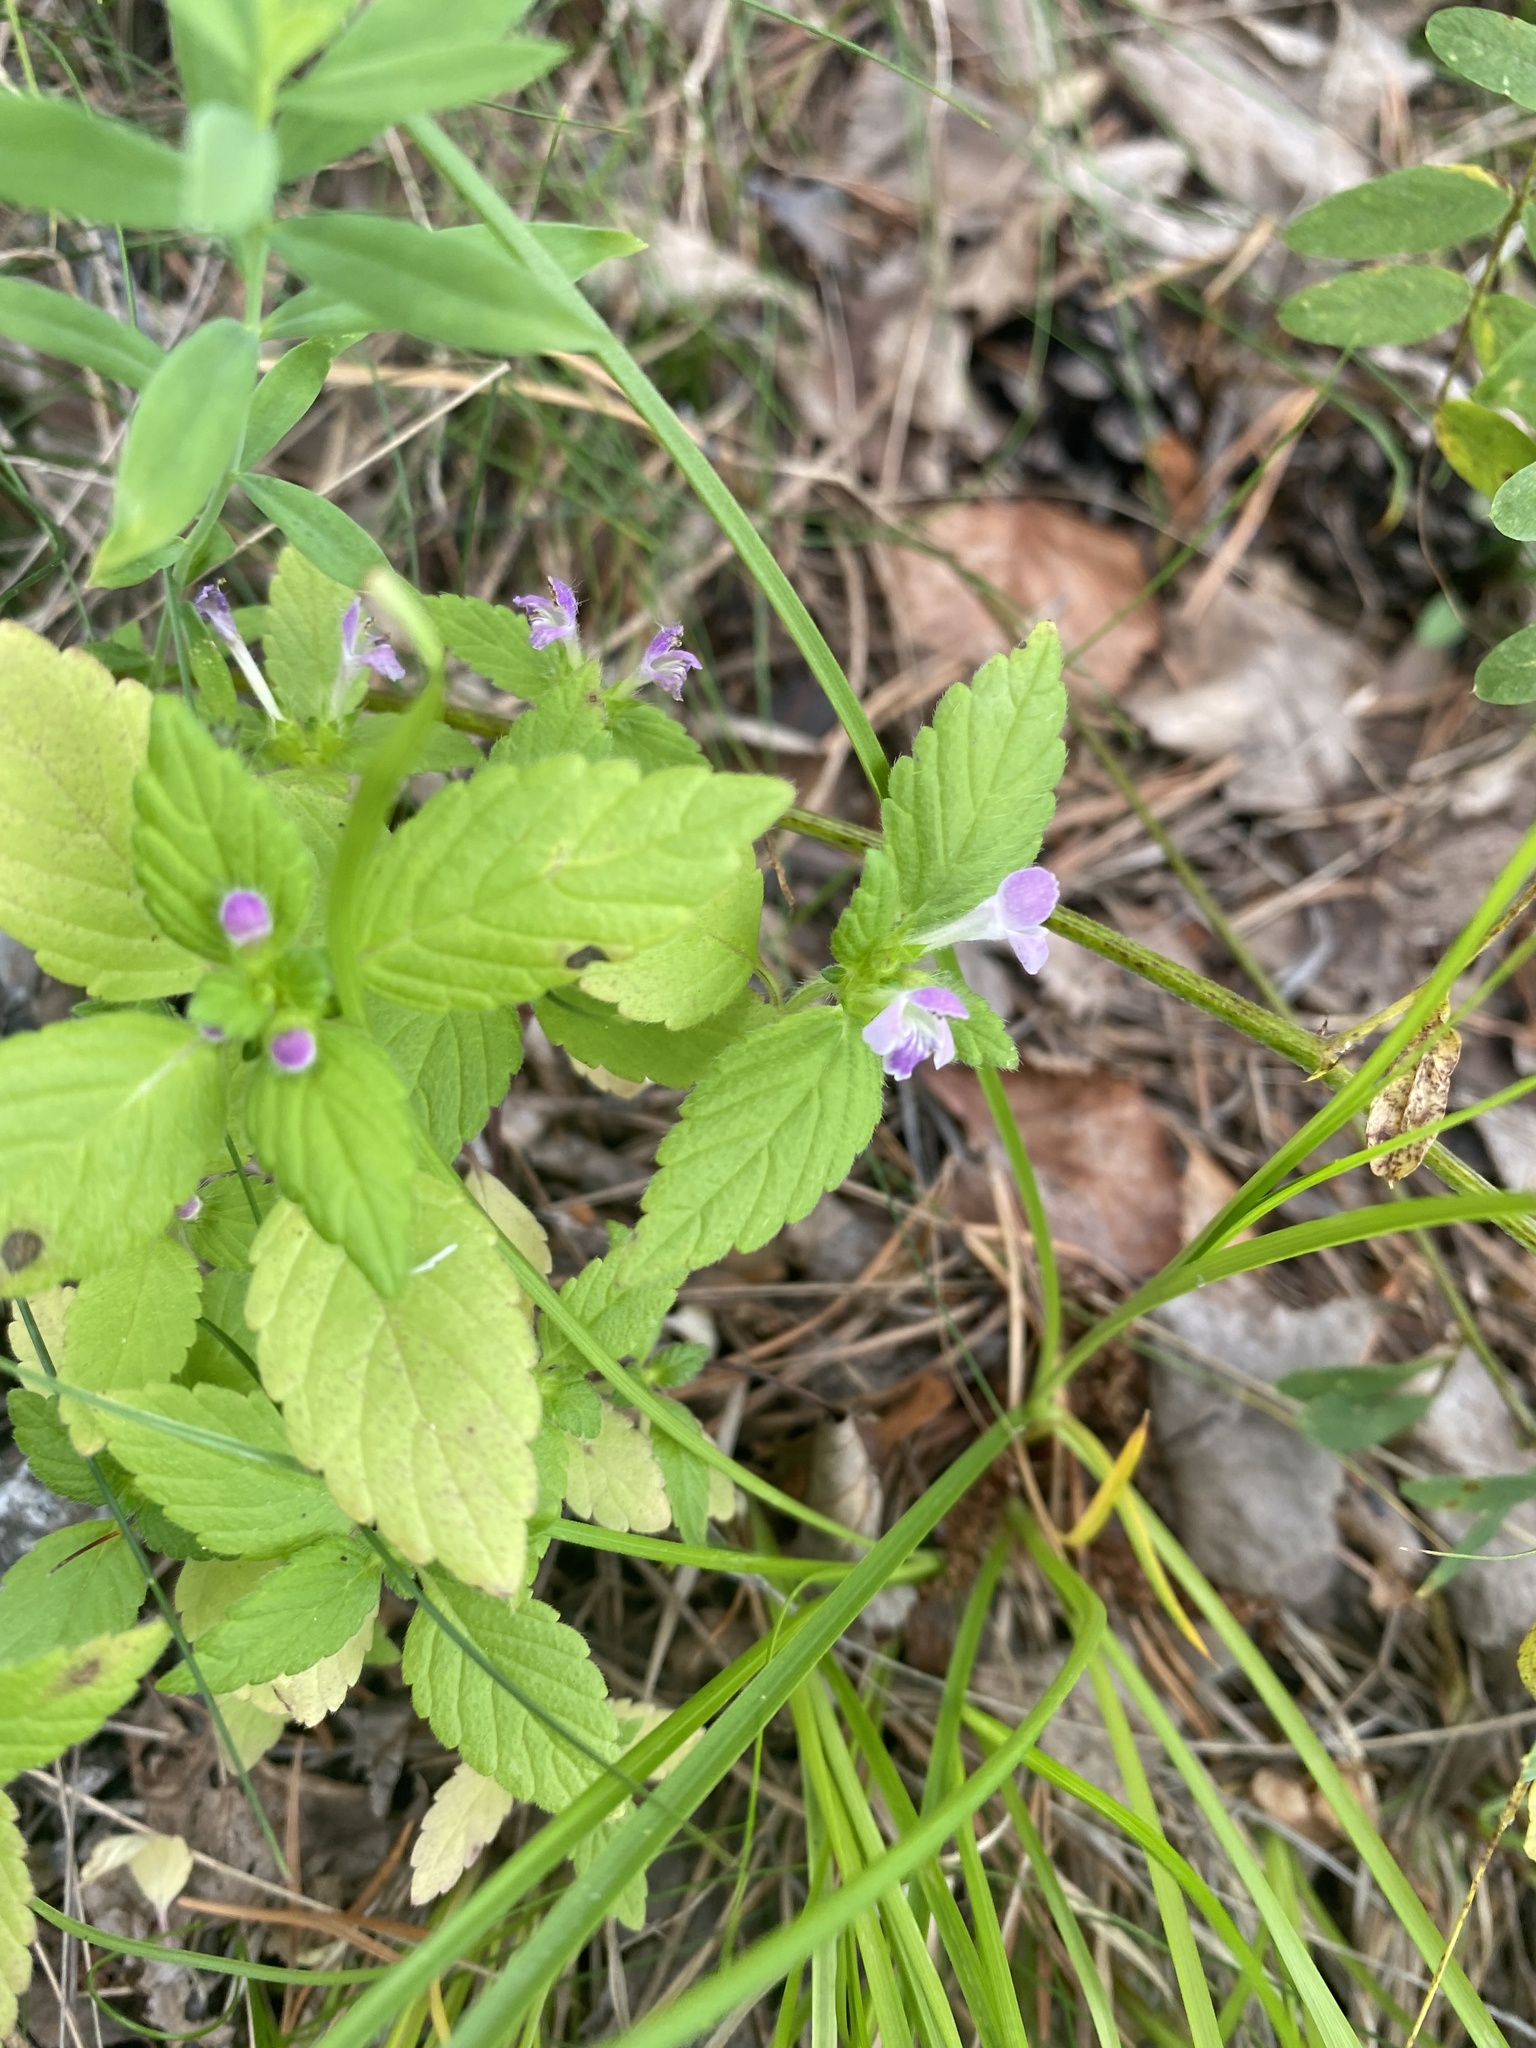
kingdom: Plantae
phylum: Tracheophyta
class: Magnoliopsida
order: Lamiales
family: Lamiaceae
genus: Galeopsis
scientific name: Galeopsis bifida
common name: Bifid hemp-nettle
